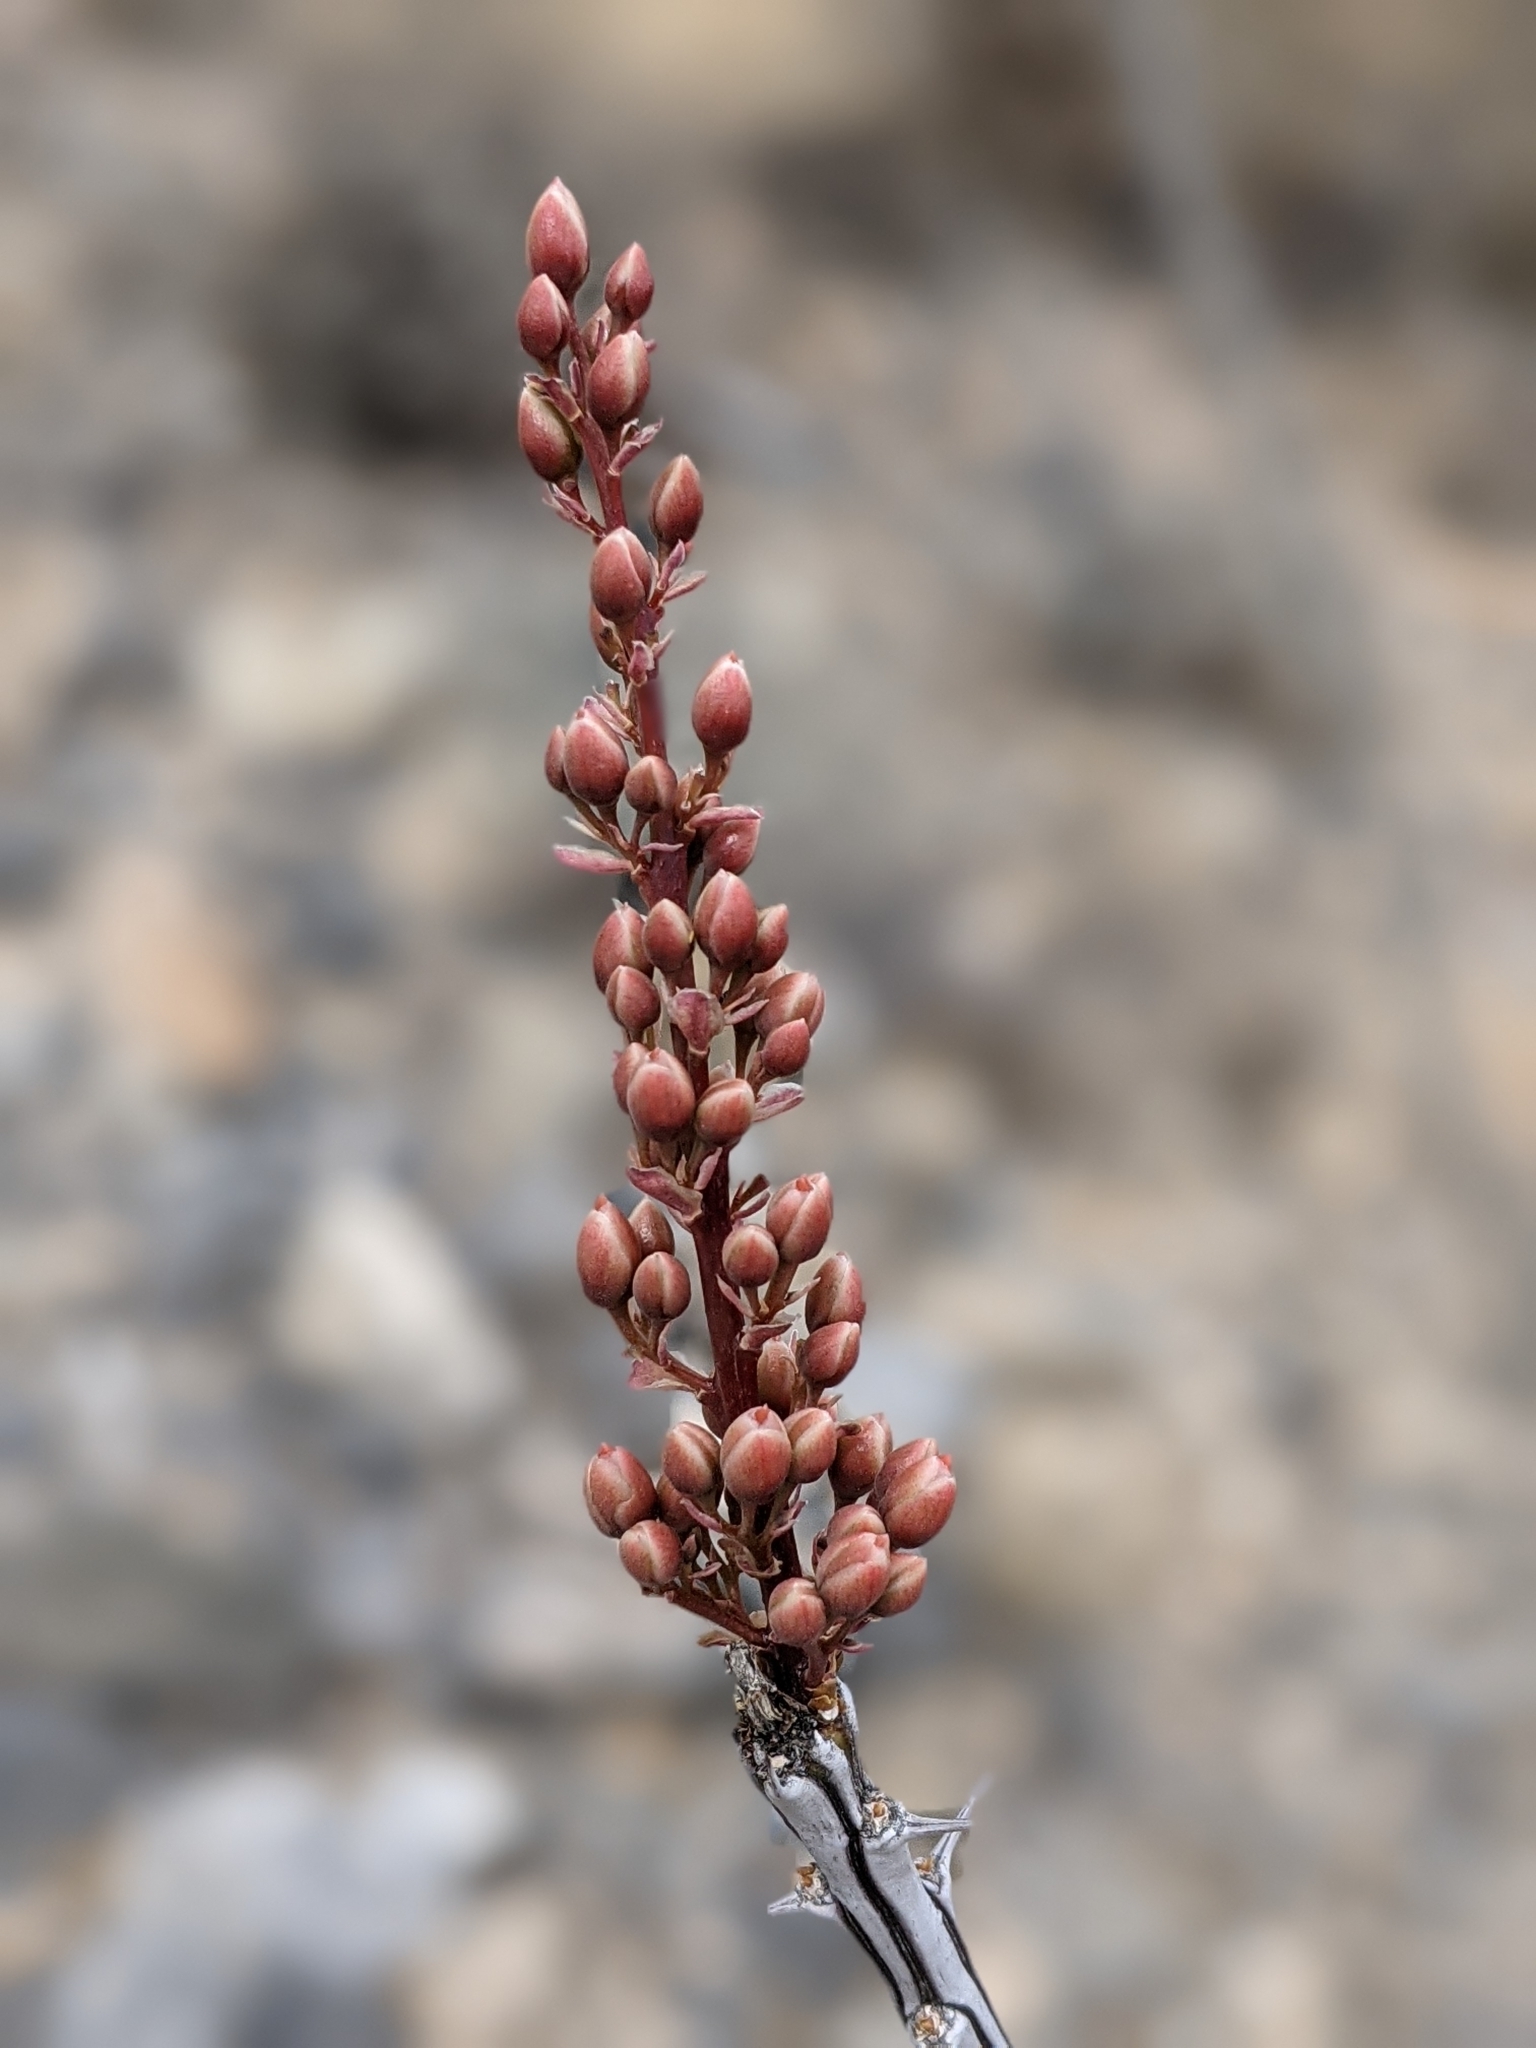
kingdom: Plantae
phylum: Tracheophyta
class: Magnoliopsida
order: Ericales
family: Fouquieriaceae
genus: Fouquieria
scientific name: Fouquieria splendens
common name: Vine-cactus
